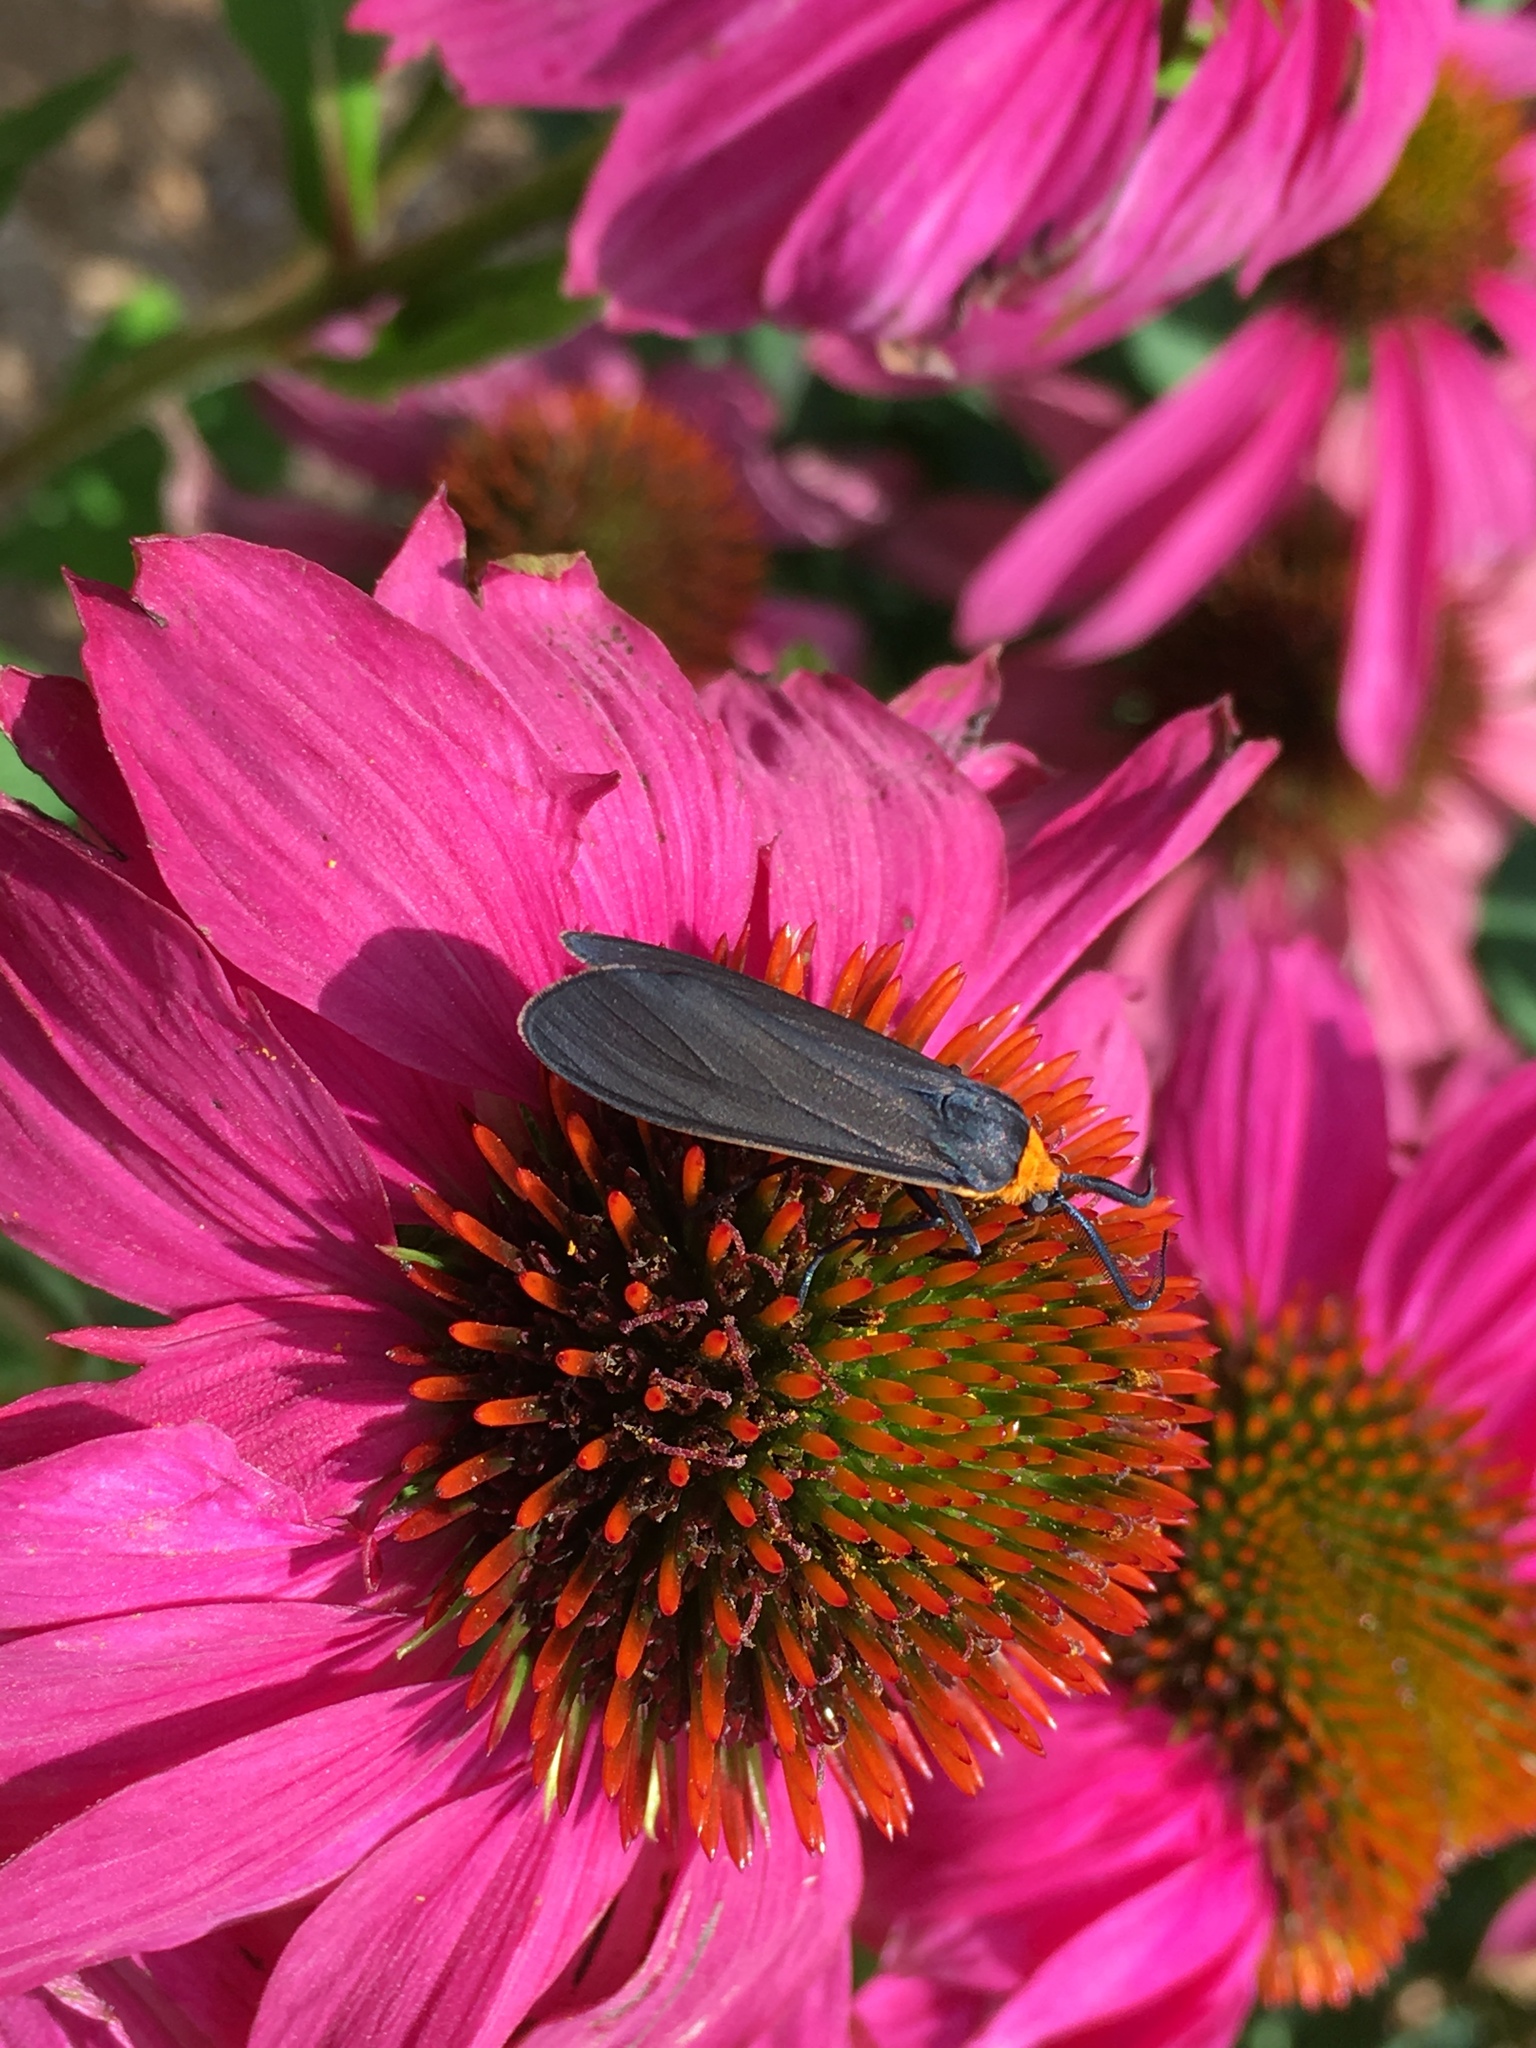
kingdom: Animalia
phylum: Arthropoda
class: Insecta
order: Lepidoptera
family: Erebidae
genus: Cisseps
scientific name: Cisseps fulvicollis
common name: Yellow-collared scape moth
